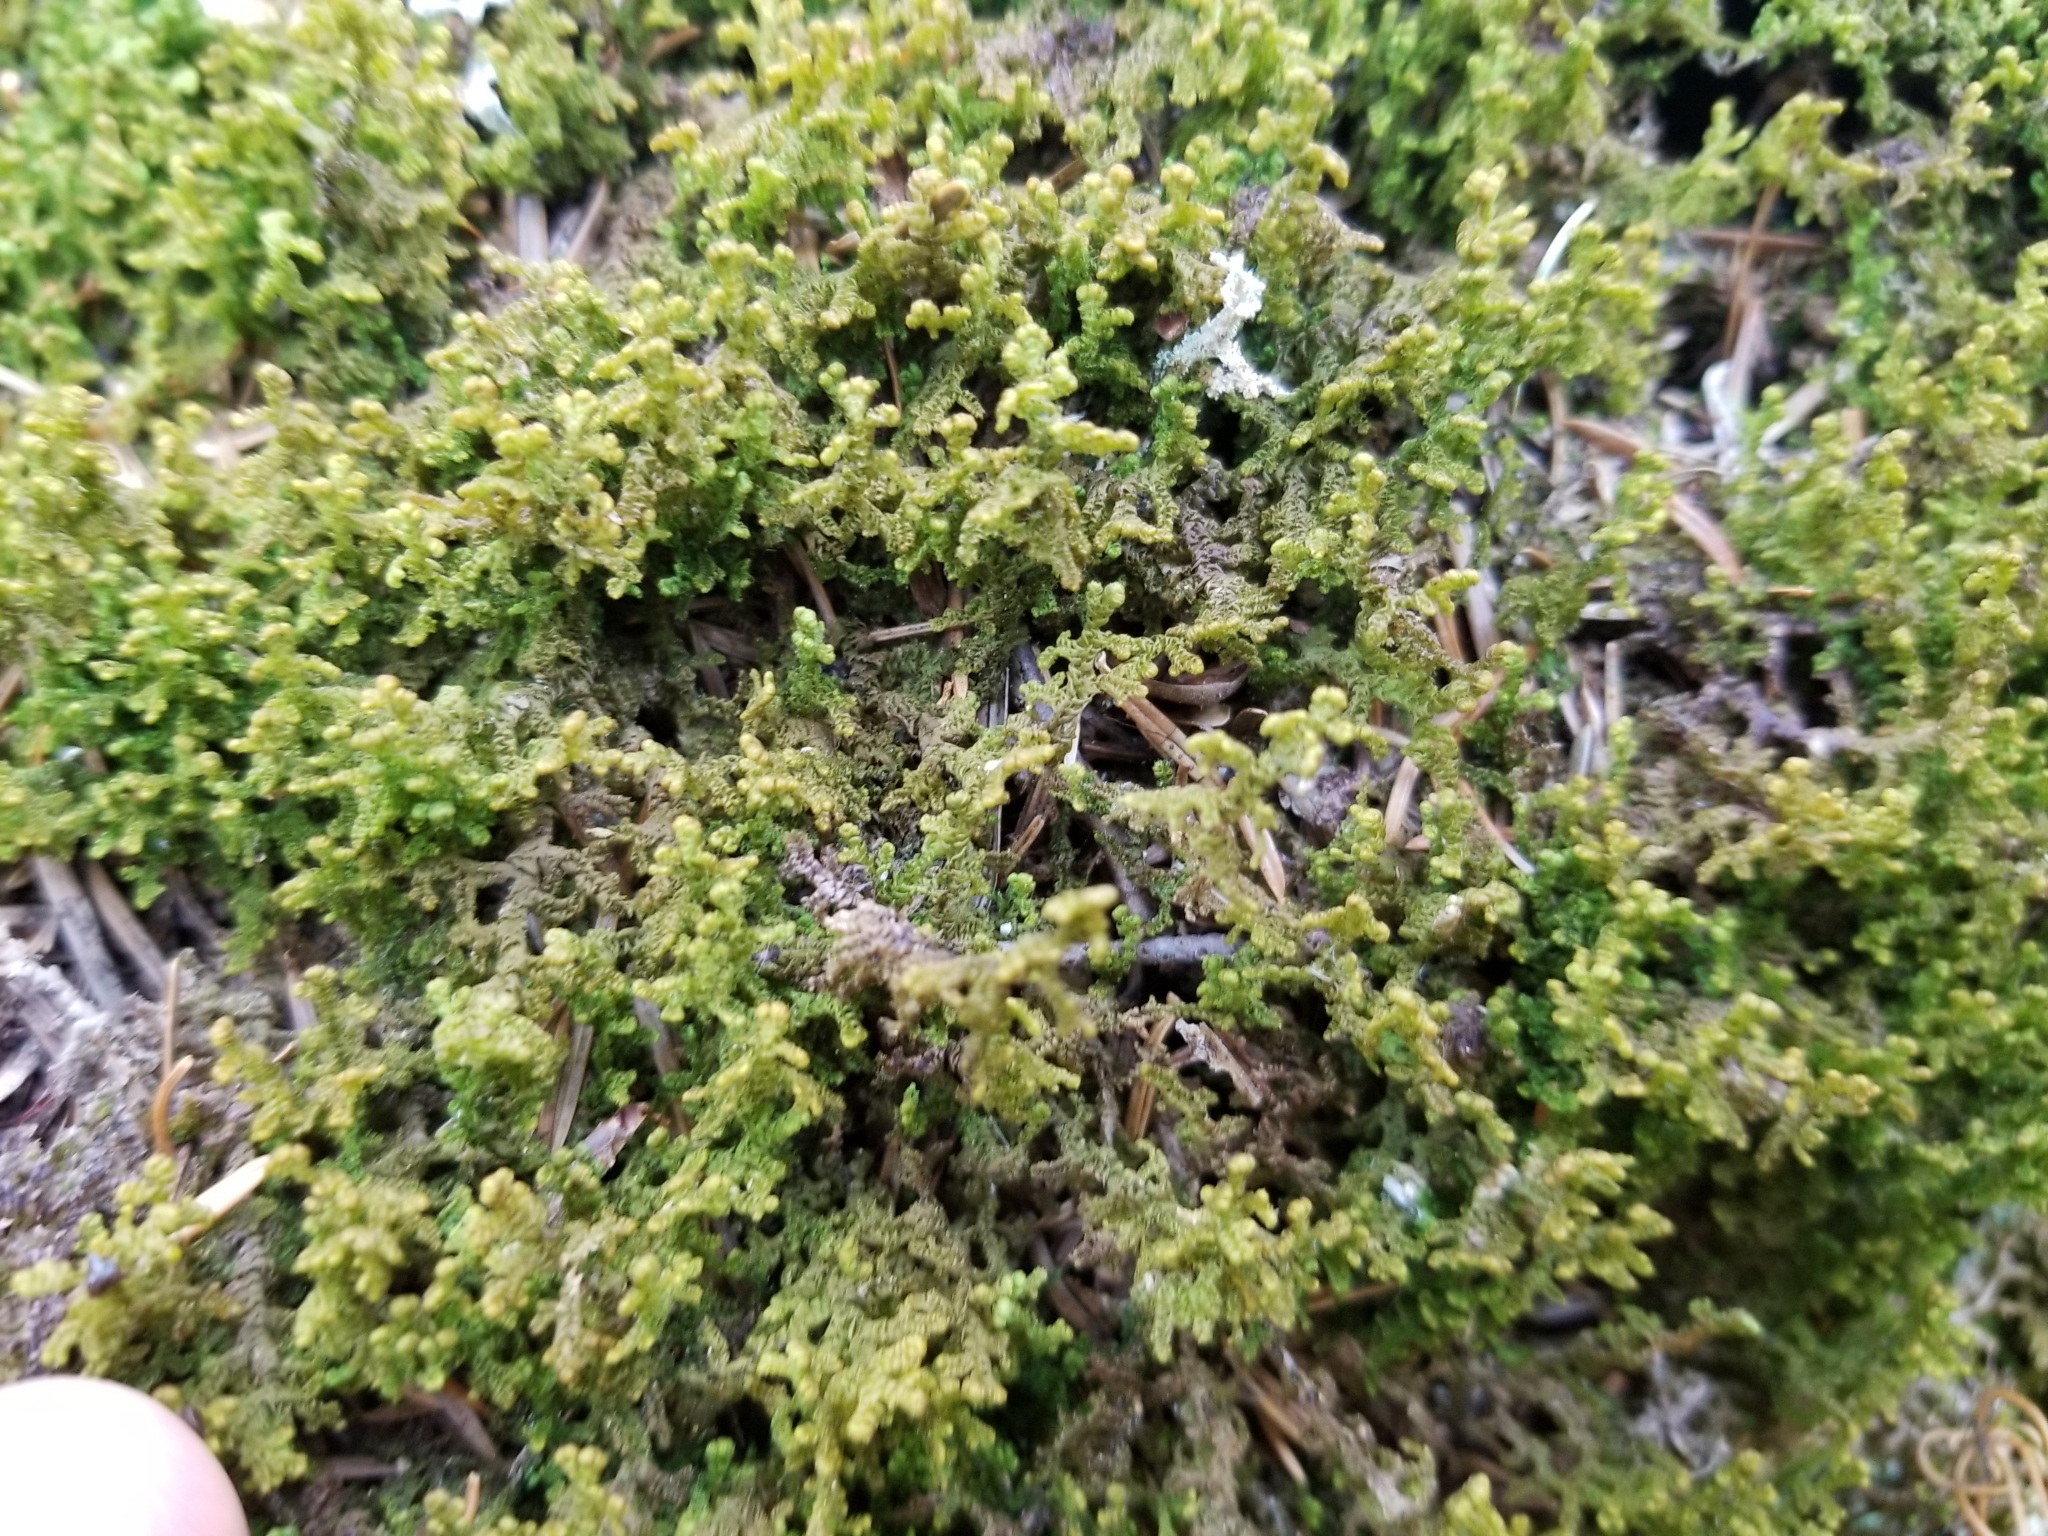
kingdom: Plantae
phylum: Marchantiophyta
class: Jungermanniopsida
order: Ptilidiales
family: Ptilidiaceae
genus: Ptilidium
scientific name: Ptilidium ciliare
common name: Ciliate fringewort
